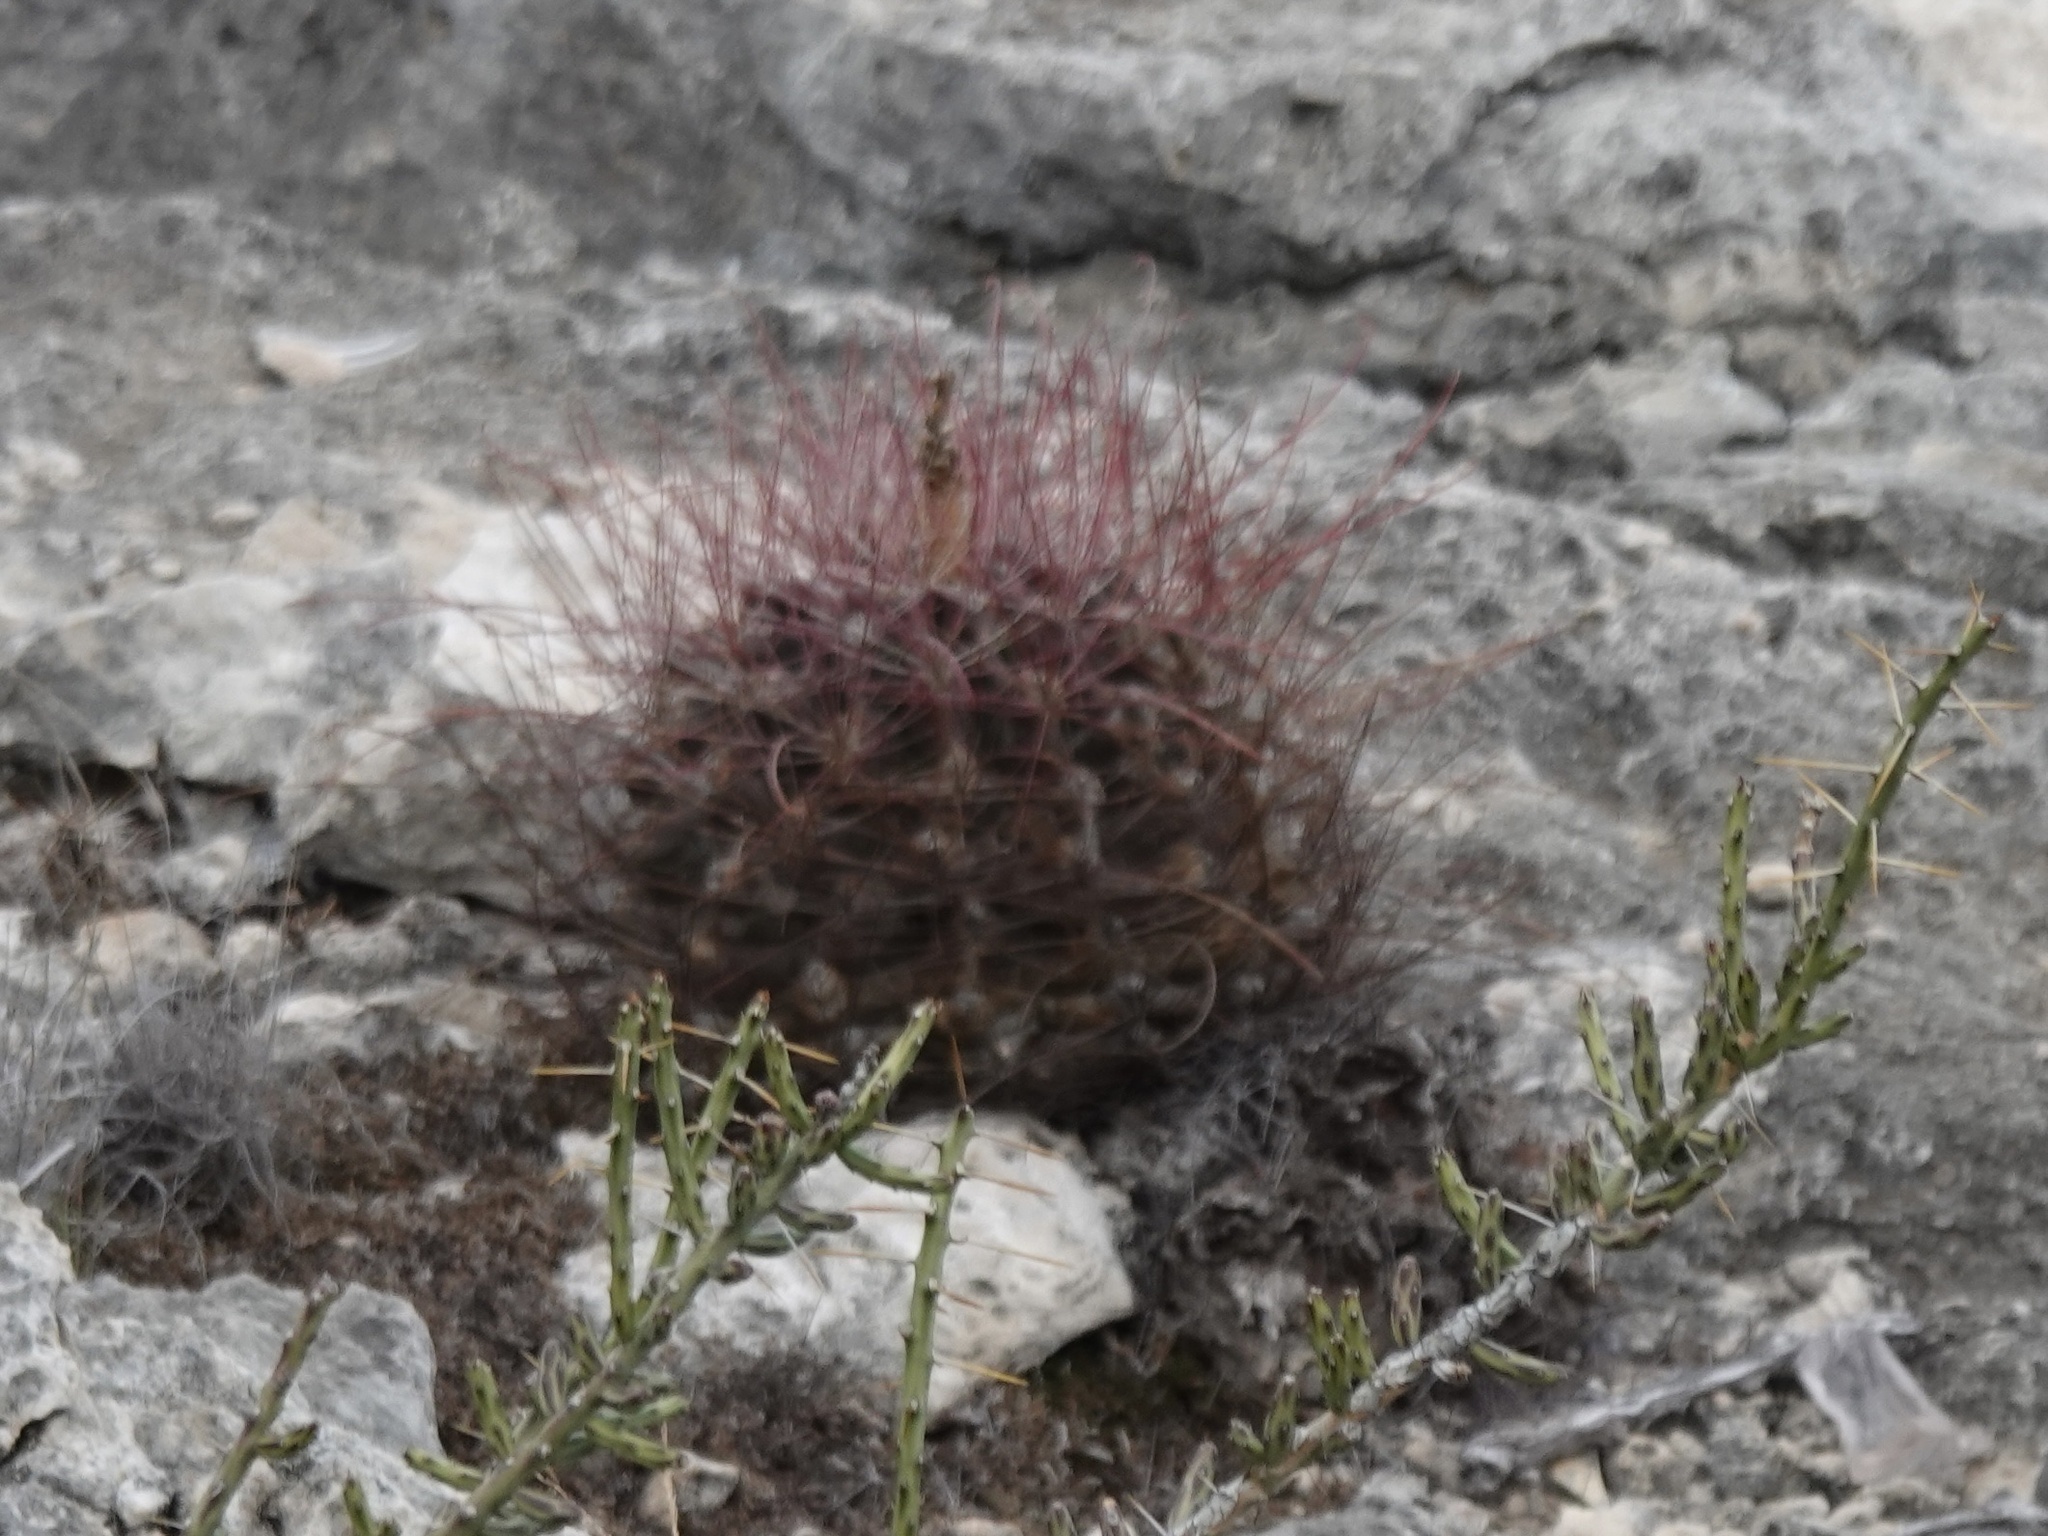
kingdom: Plantae
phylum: Tracheophyta
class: Magnoliopsida
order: Caryophyllales
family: Cactaceae
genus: Bisnaga
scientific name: Bisnaga hamatacantha
